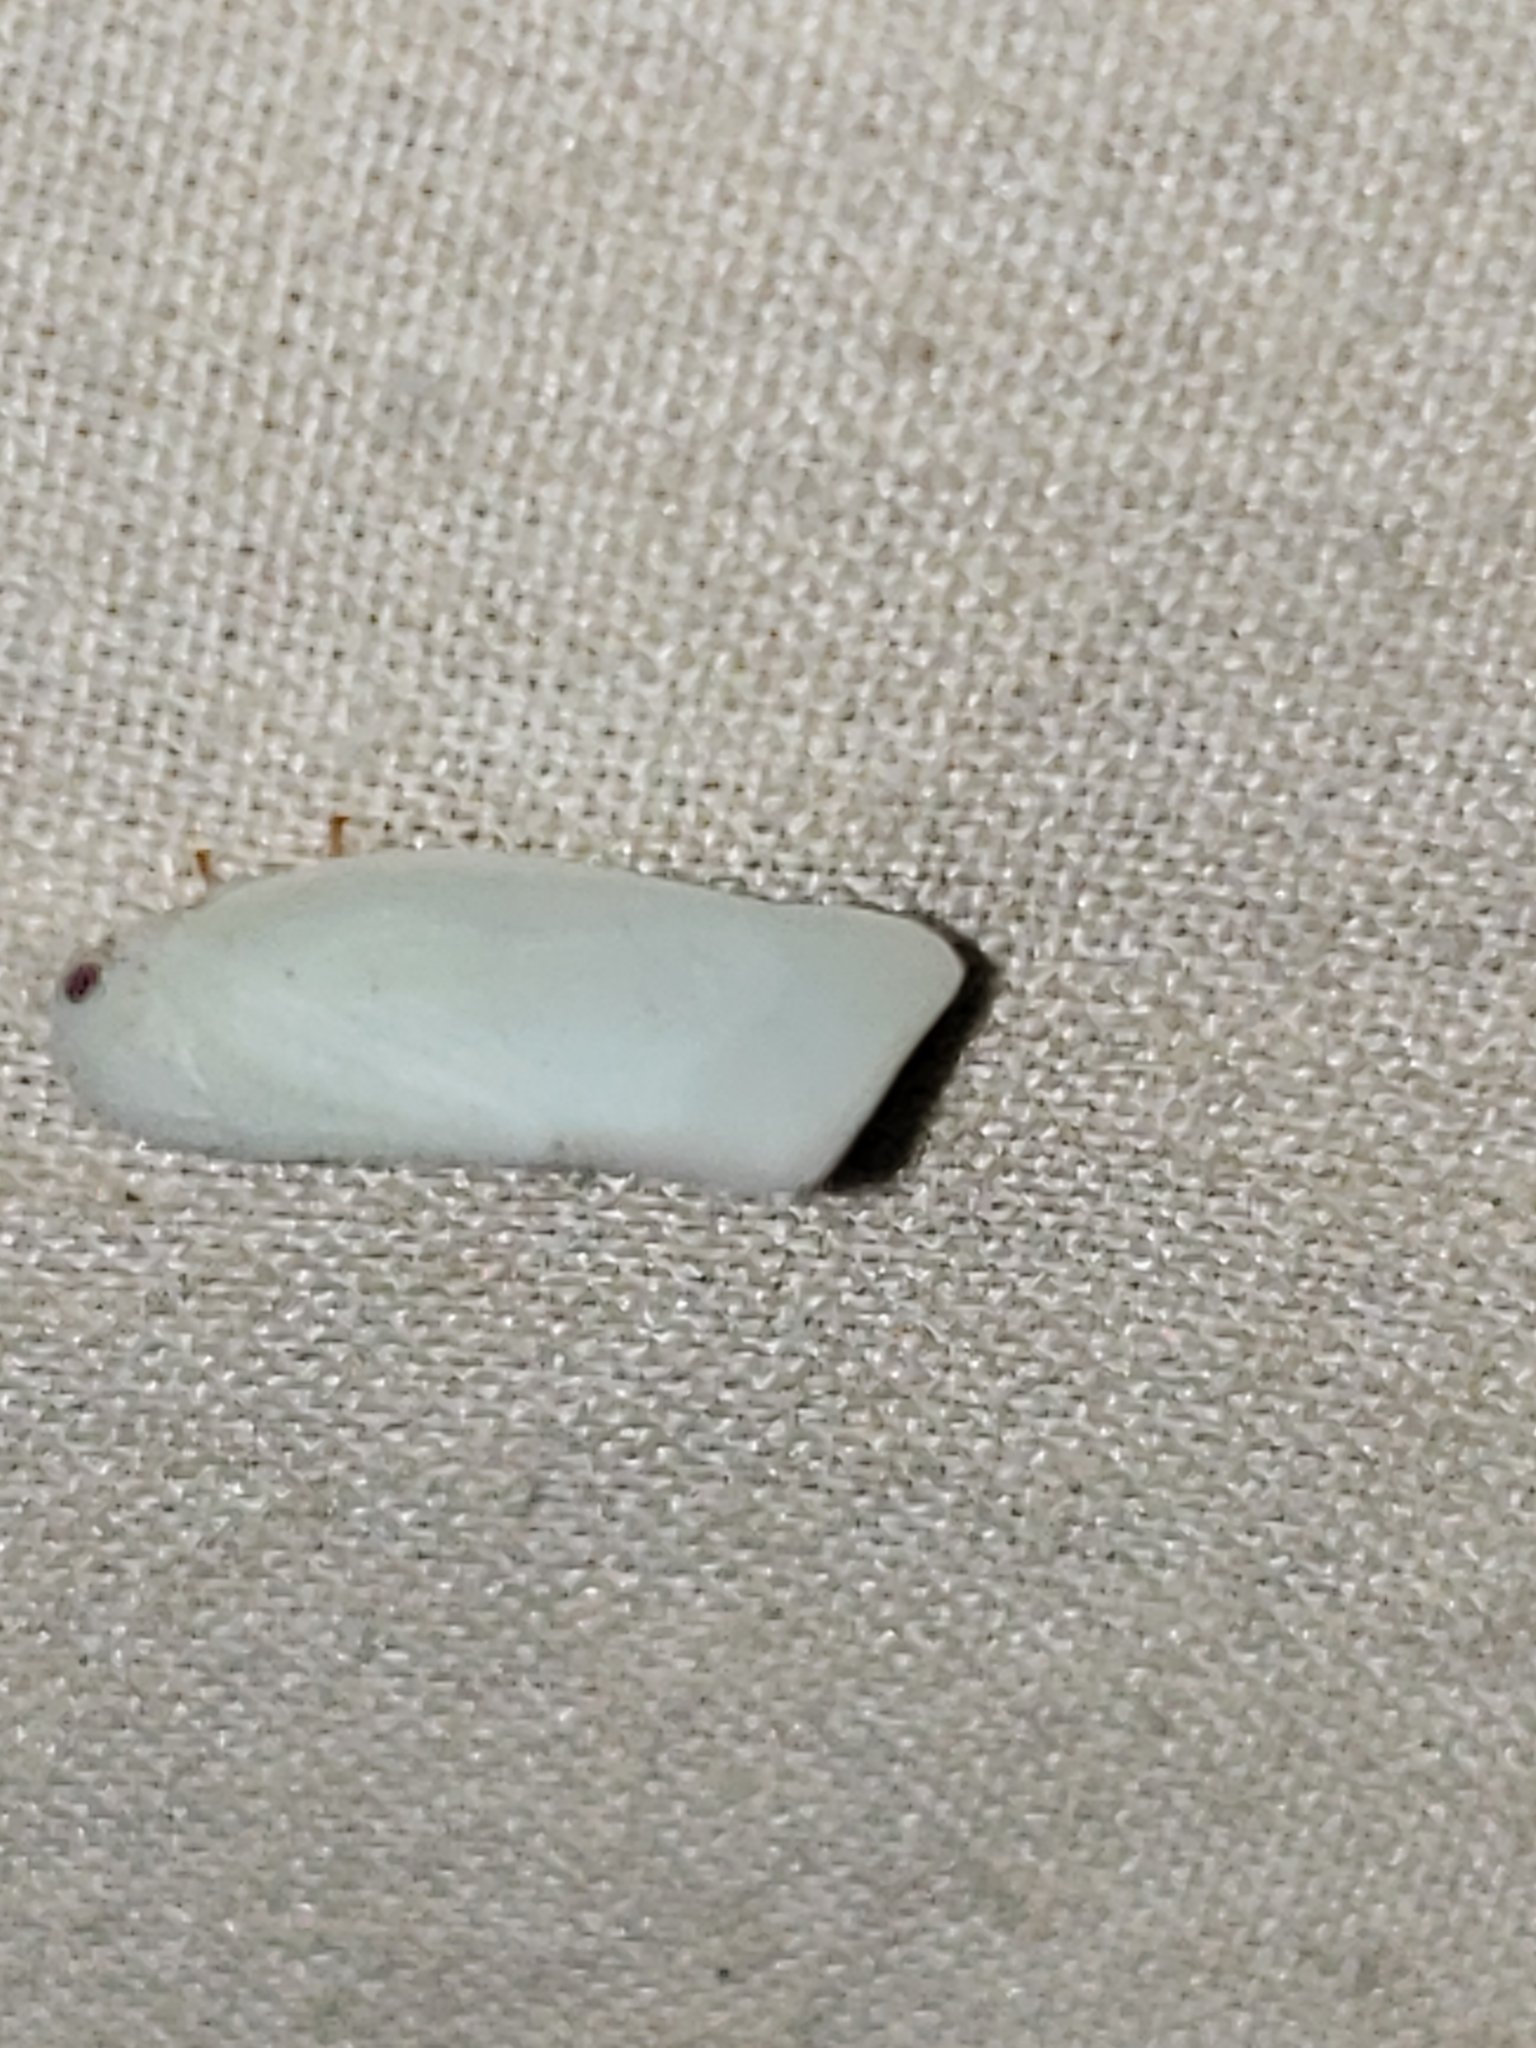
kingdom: Animalia
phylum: Arthropoda
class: Insecta
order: Hemiptera
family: Flatidae
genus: Flatormenis
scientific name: Flatormenis proxima
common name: Northern flatid planthopper
